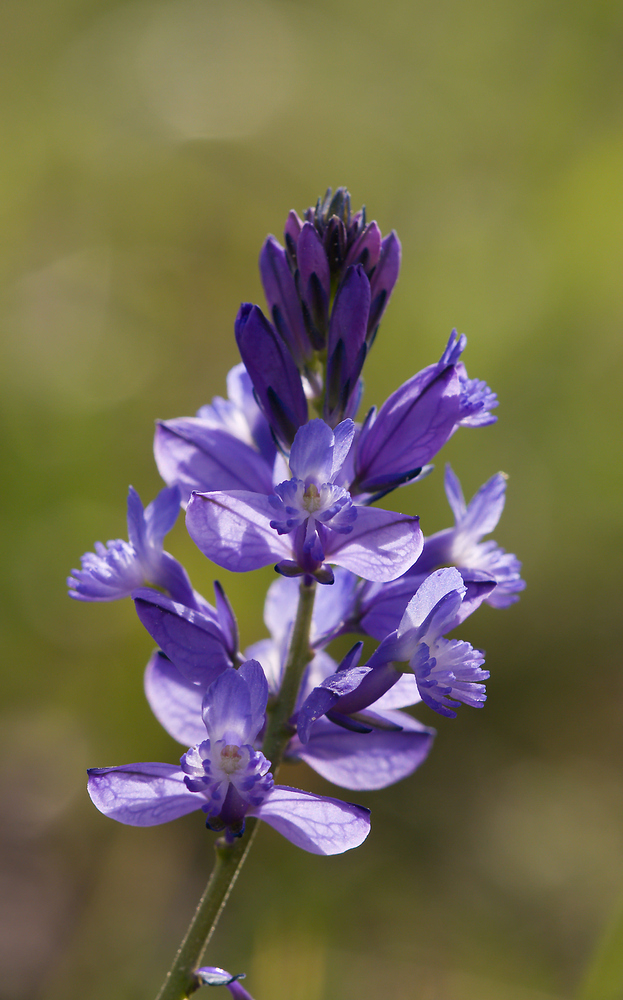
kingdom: Plantae
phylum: Tracheophyta
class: Magnoliopsida
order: Fabales
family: Polygalaceae
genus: Polygala
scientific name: Polygala nicaeensis
